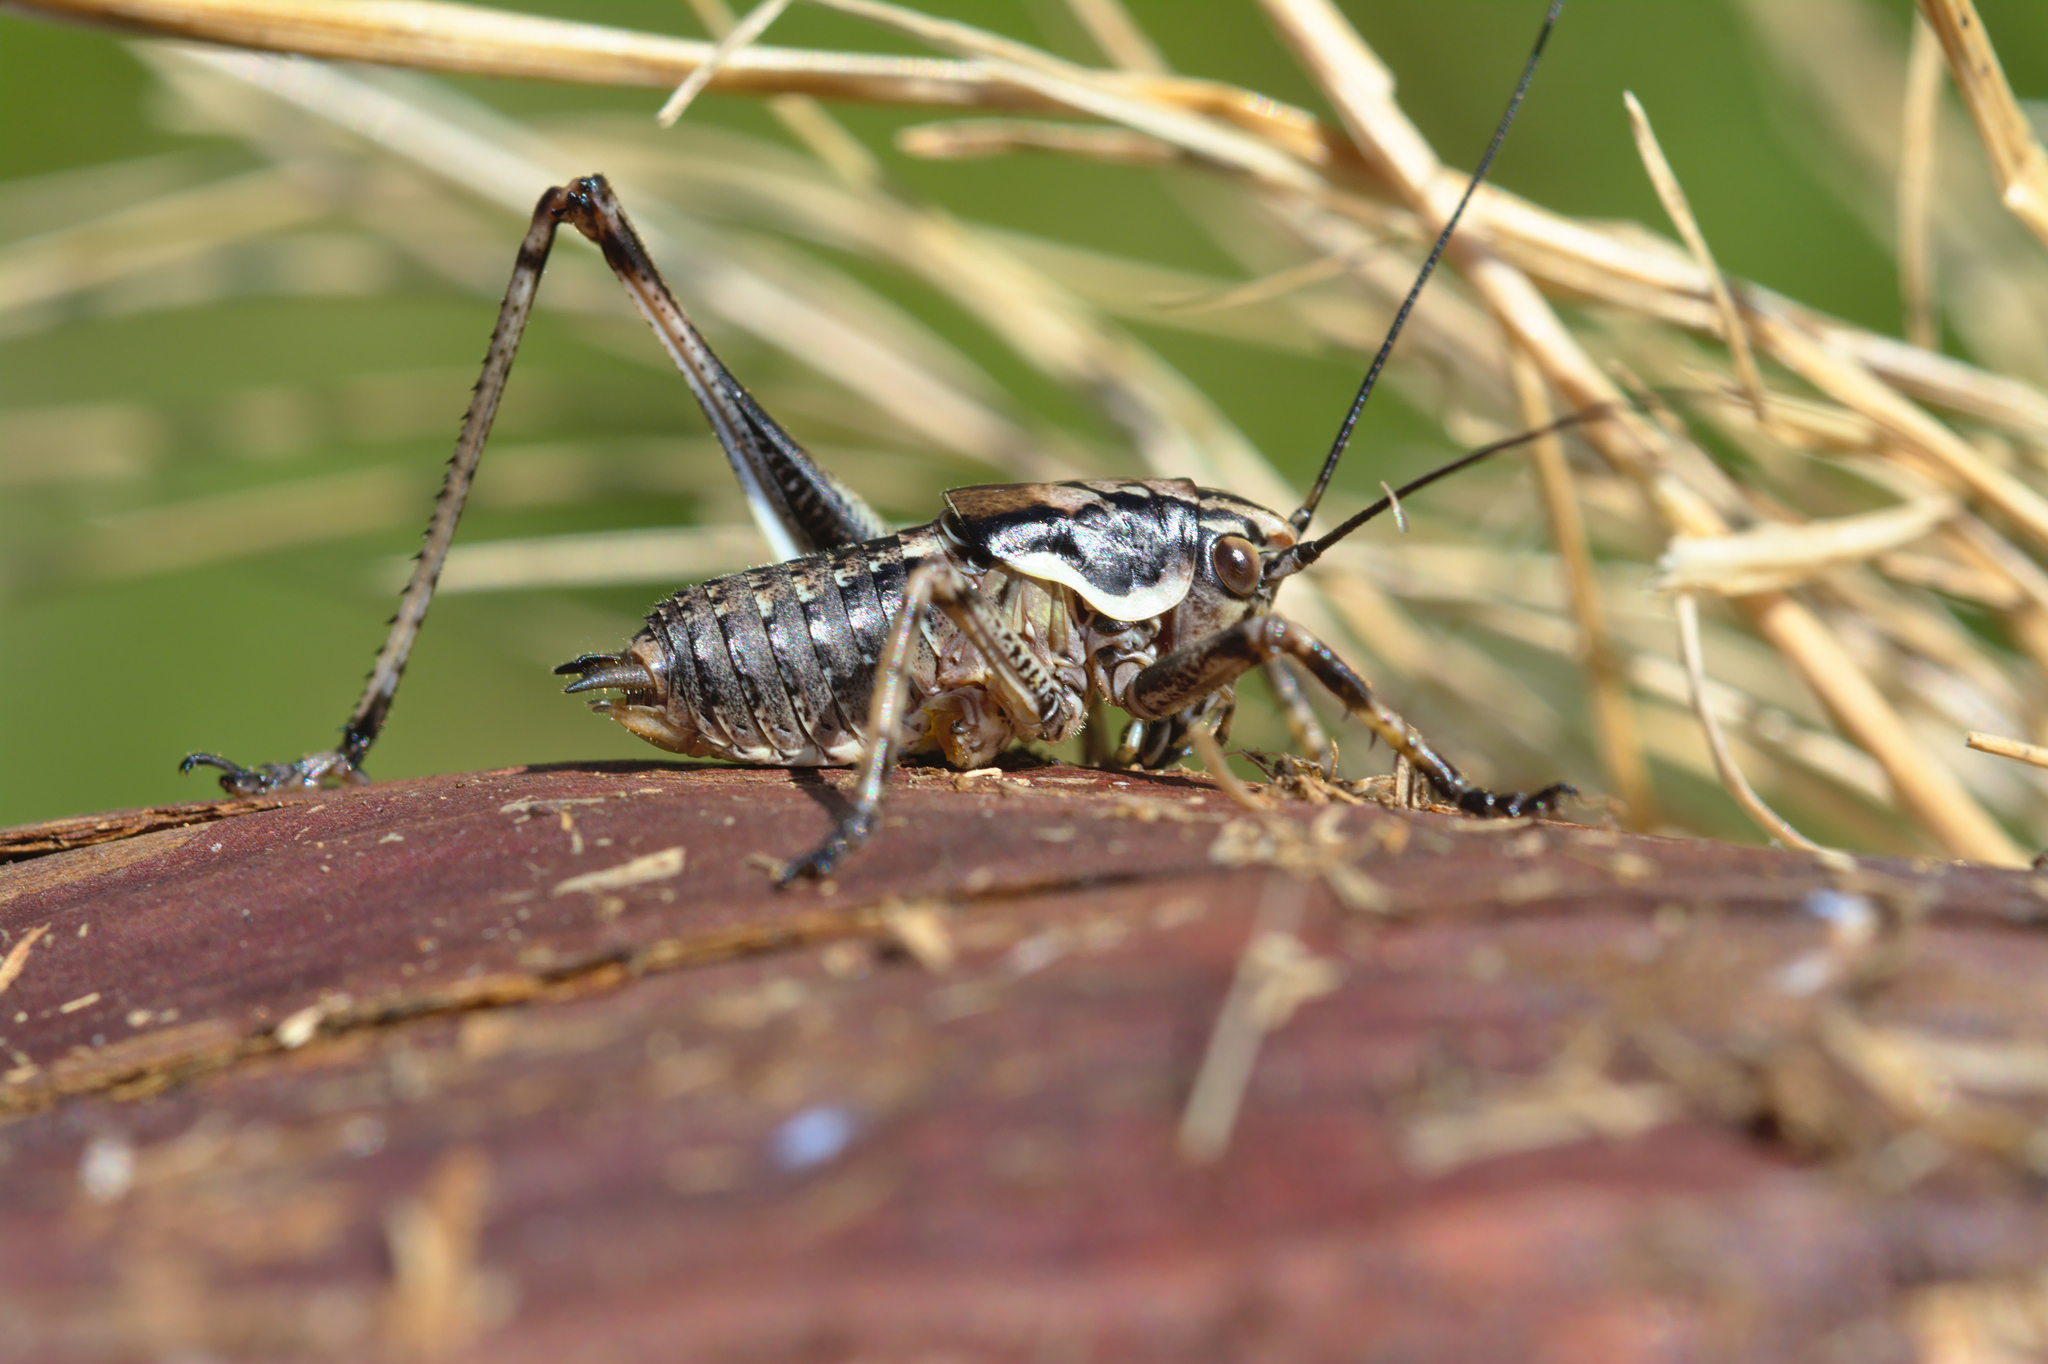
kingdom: Animalia
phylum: Arthropoda
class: Insecta
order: Orthoptera
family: Tettigoniidae
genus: Antaxius
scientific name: Antaxius hispanicus
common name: Pyrenean bush-cricket
